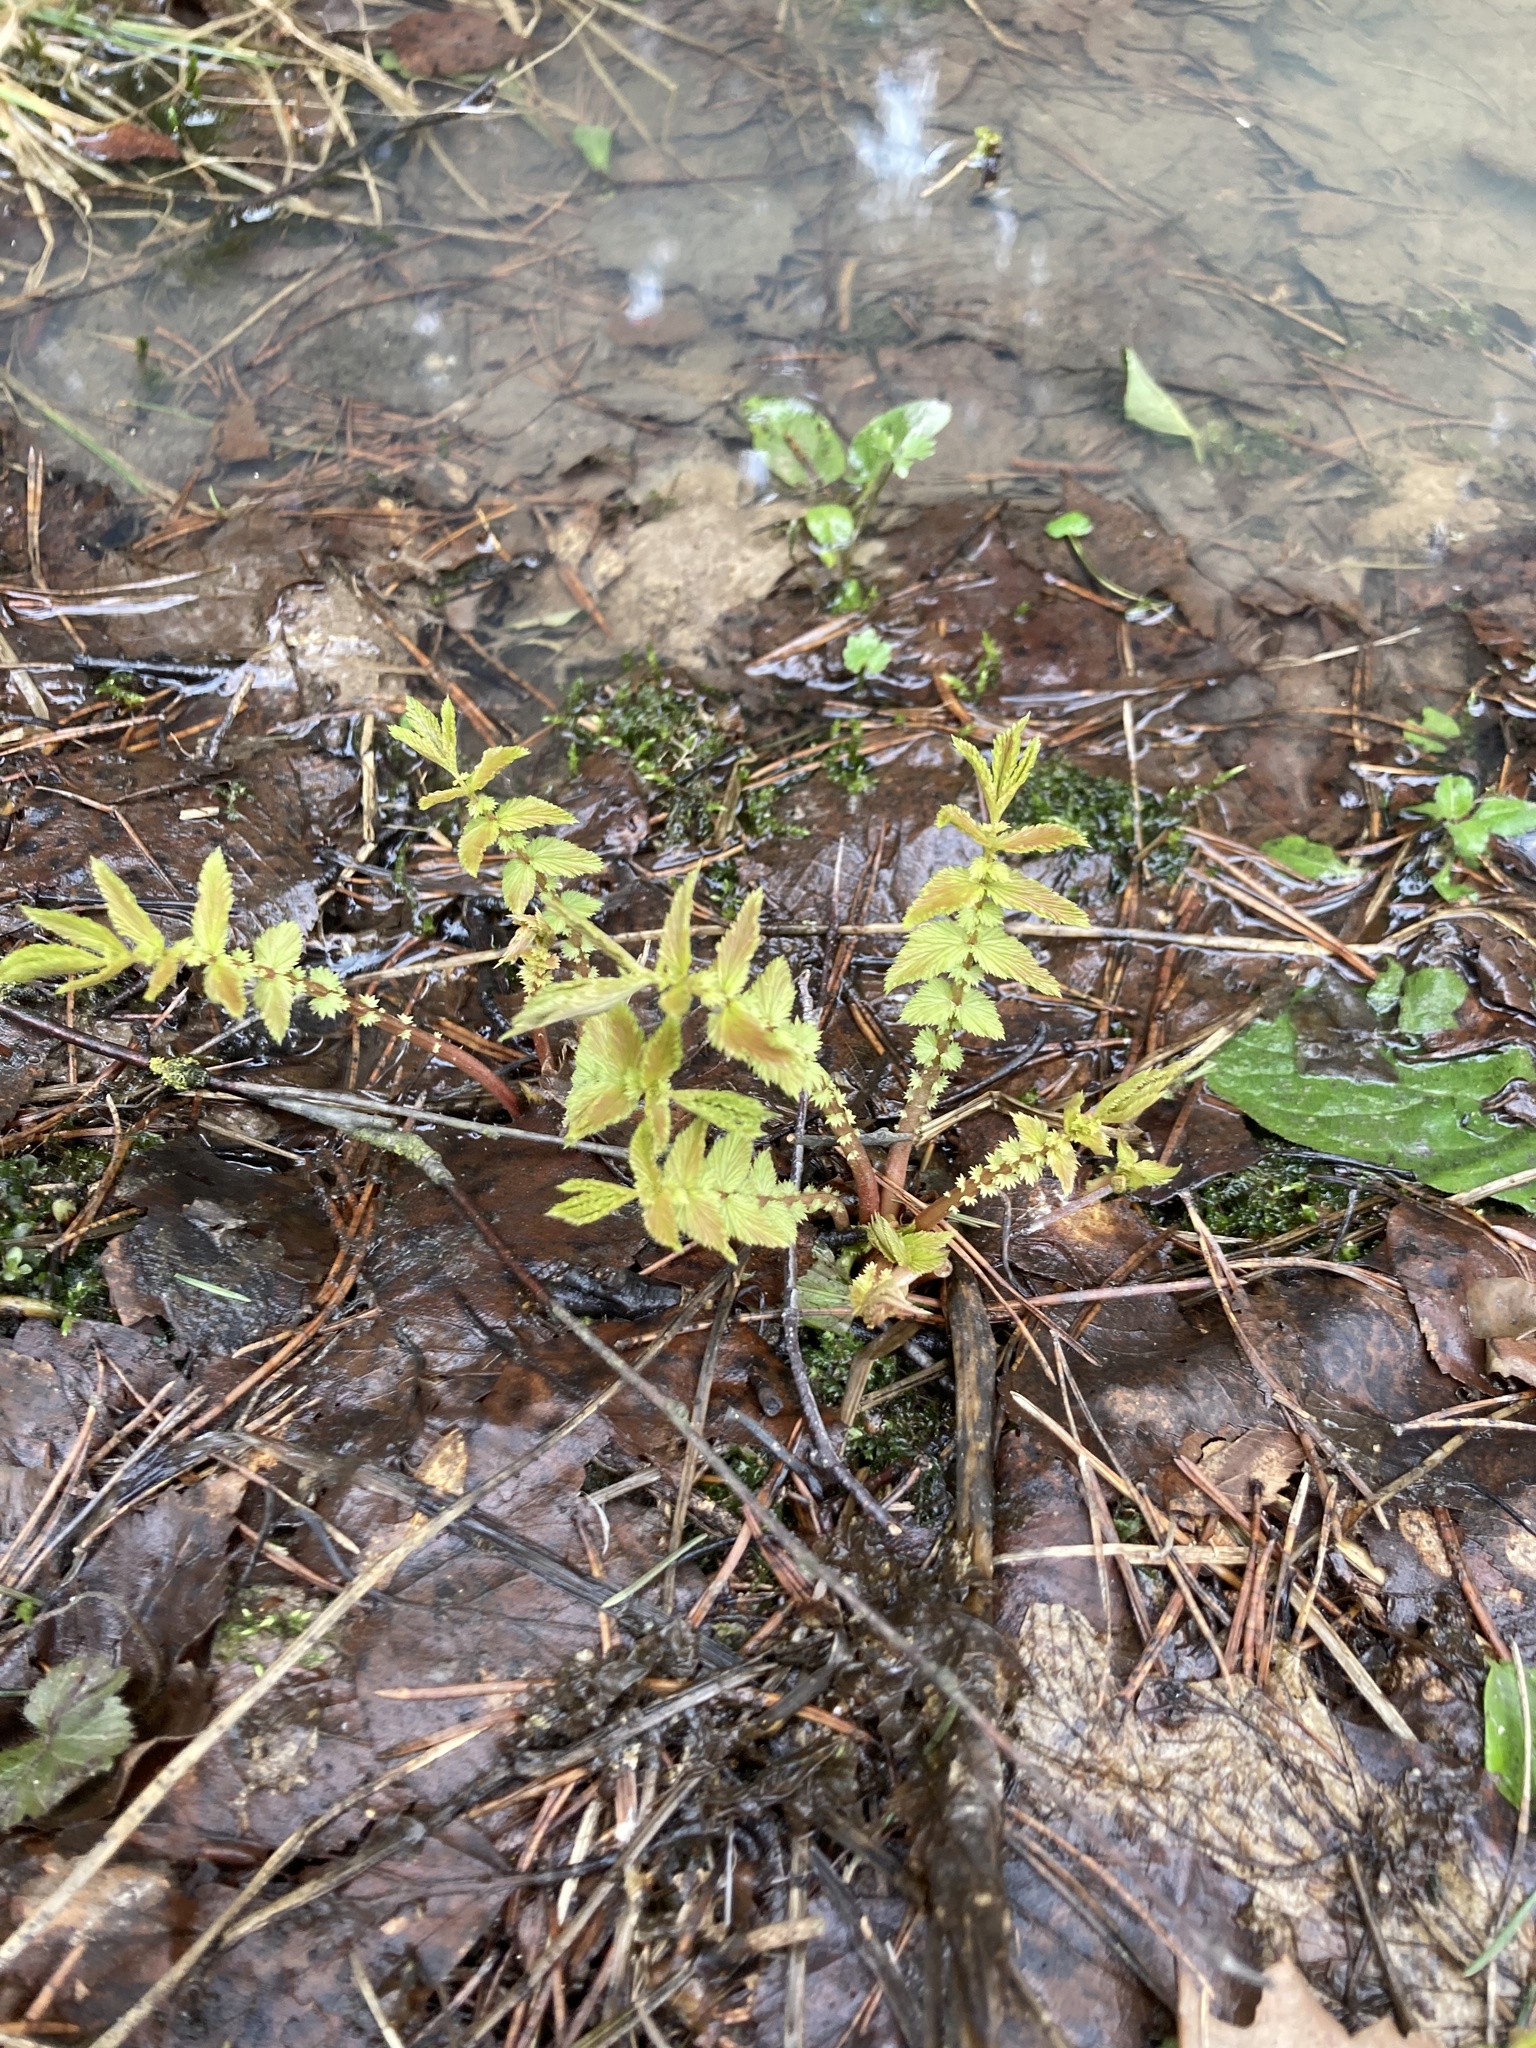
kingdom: Plantae
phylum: Tracheophyta
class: Magnoliopsida
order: Rosales
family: Rosaceae
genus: Filipendula
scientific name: Filipendula ulmaria
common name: Meadowsweet
